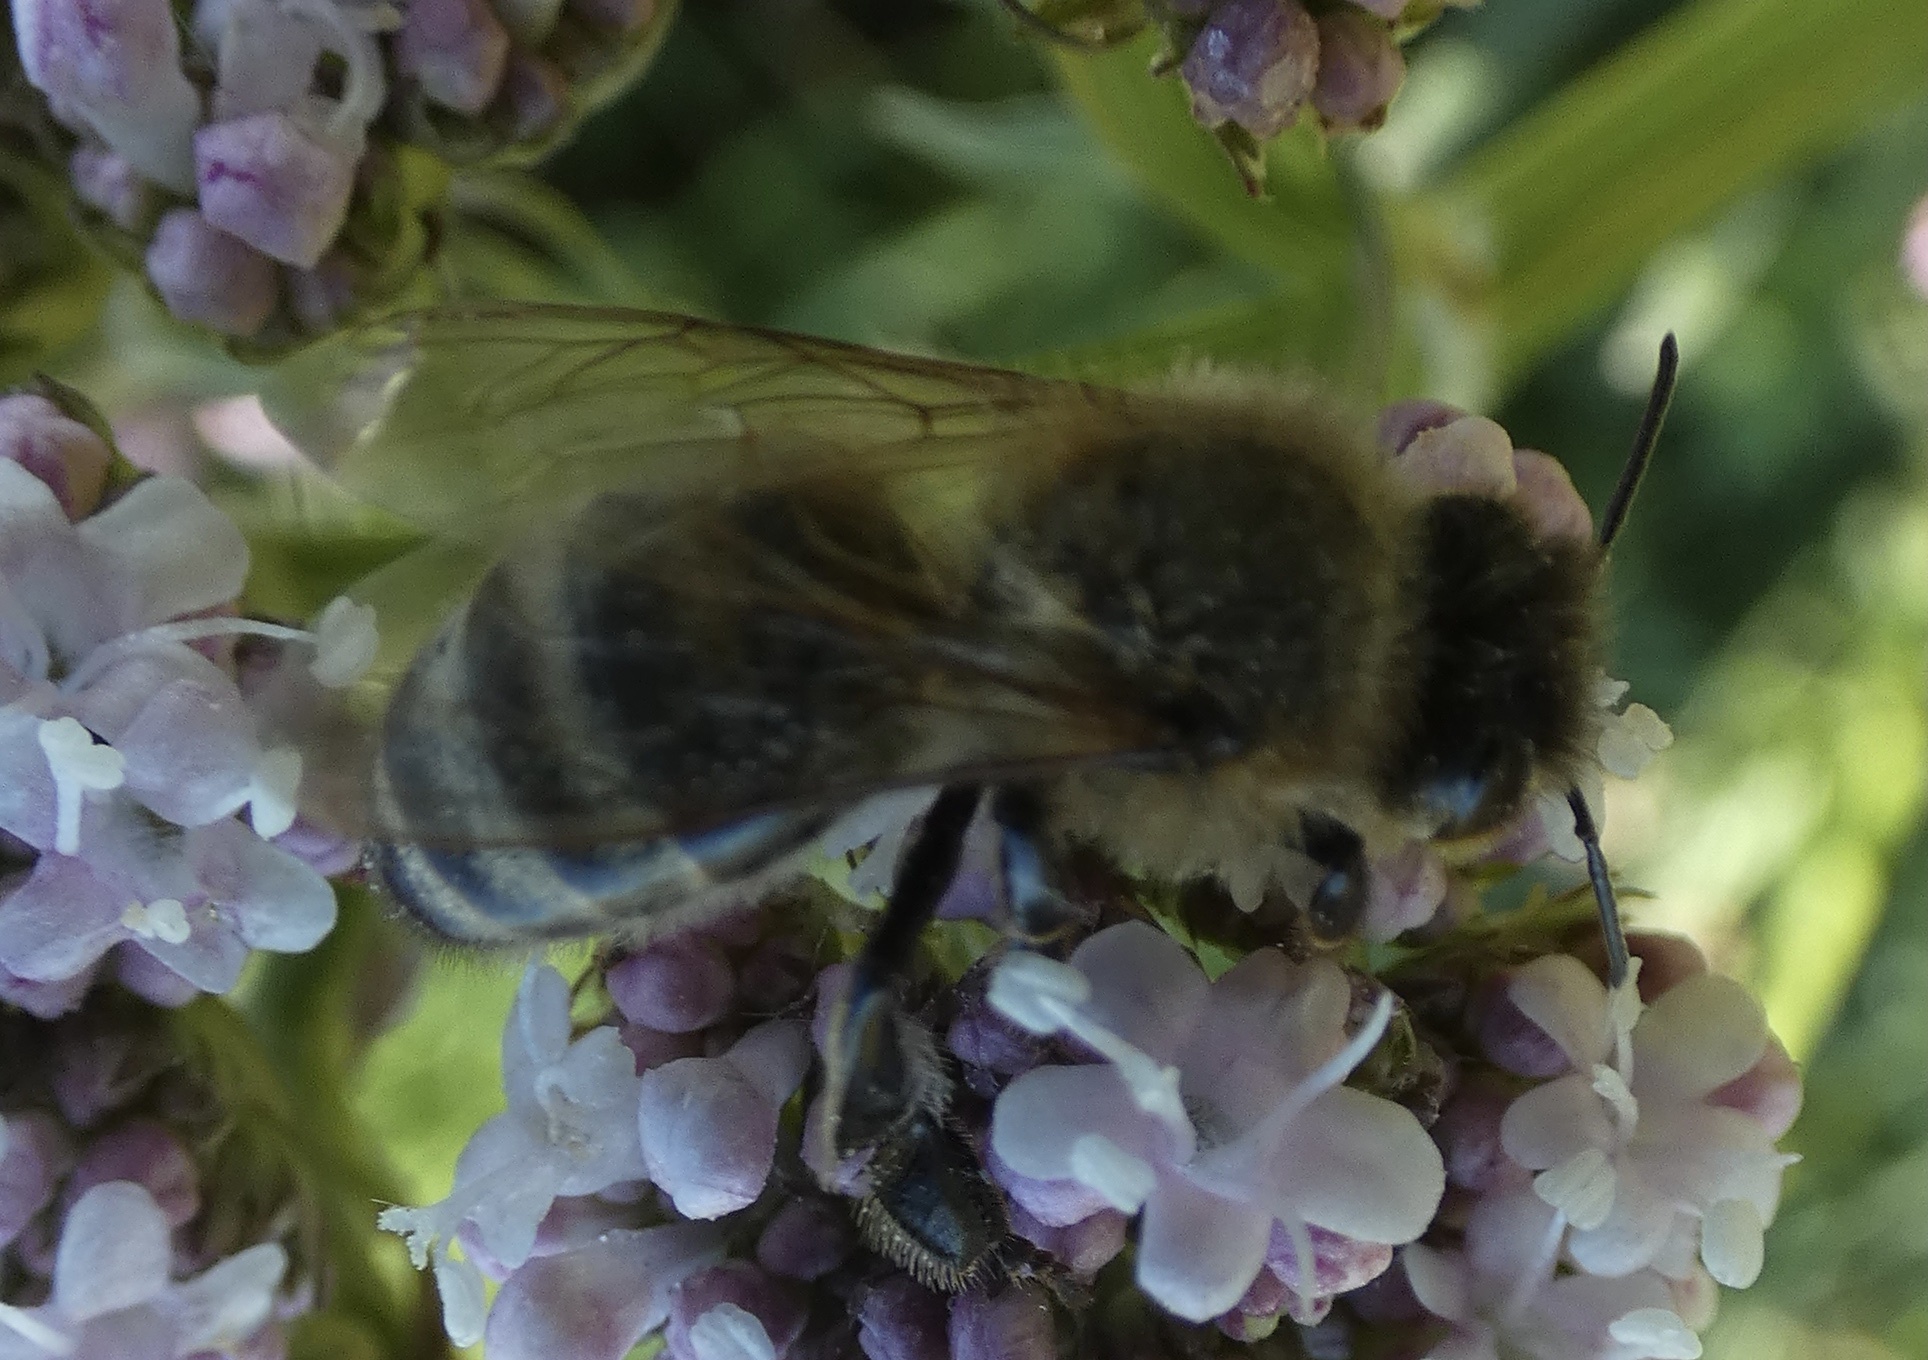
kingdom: Animalia
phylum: Arthropoda
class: Insecta
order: Hymenoptera
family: Apidae
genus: Apis
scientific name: Apis mellifera
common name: Honey bee
